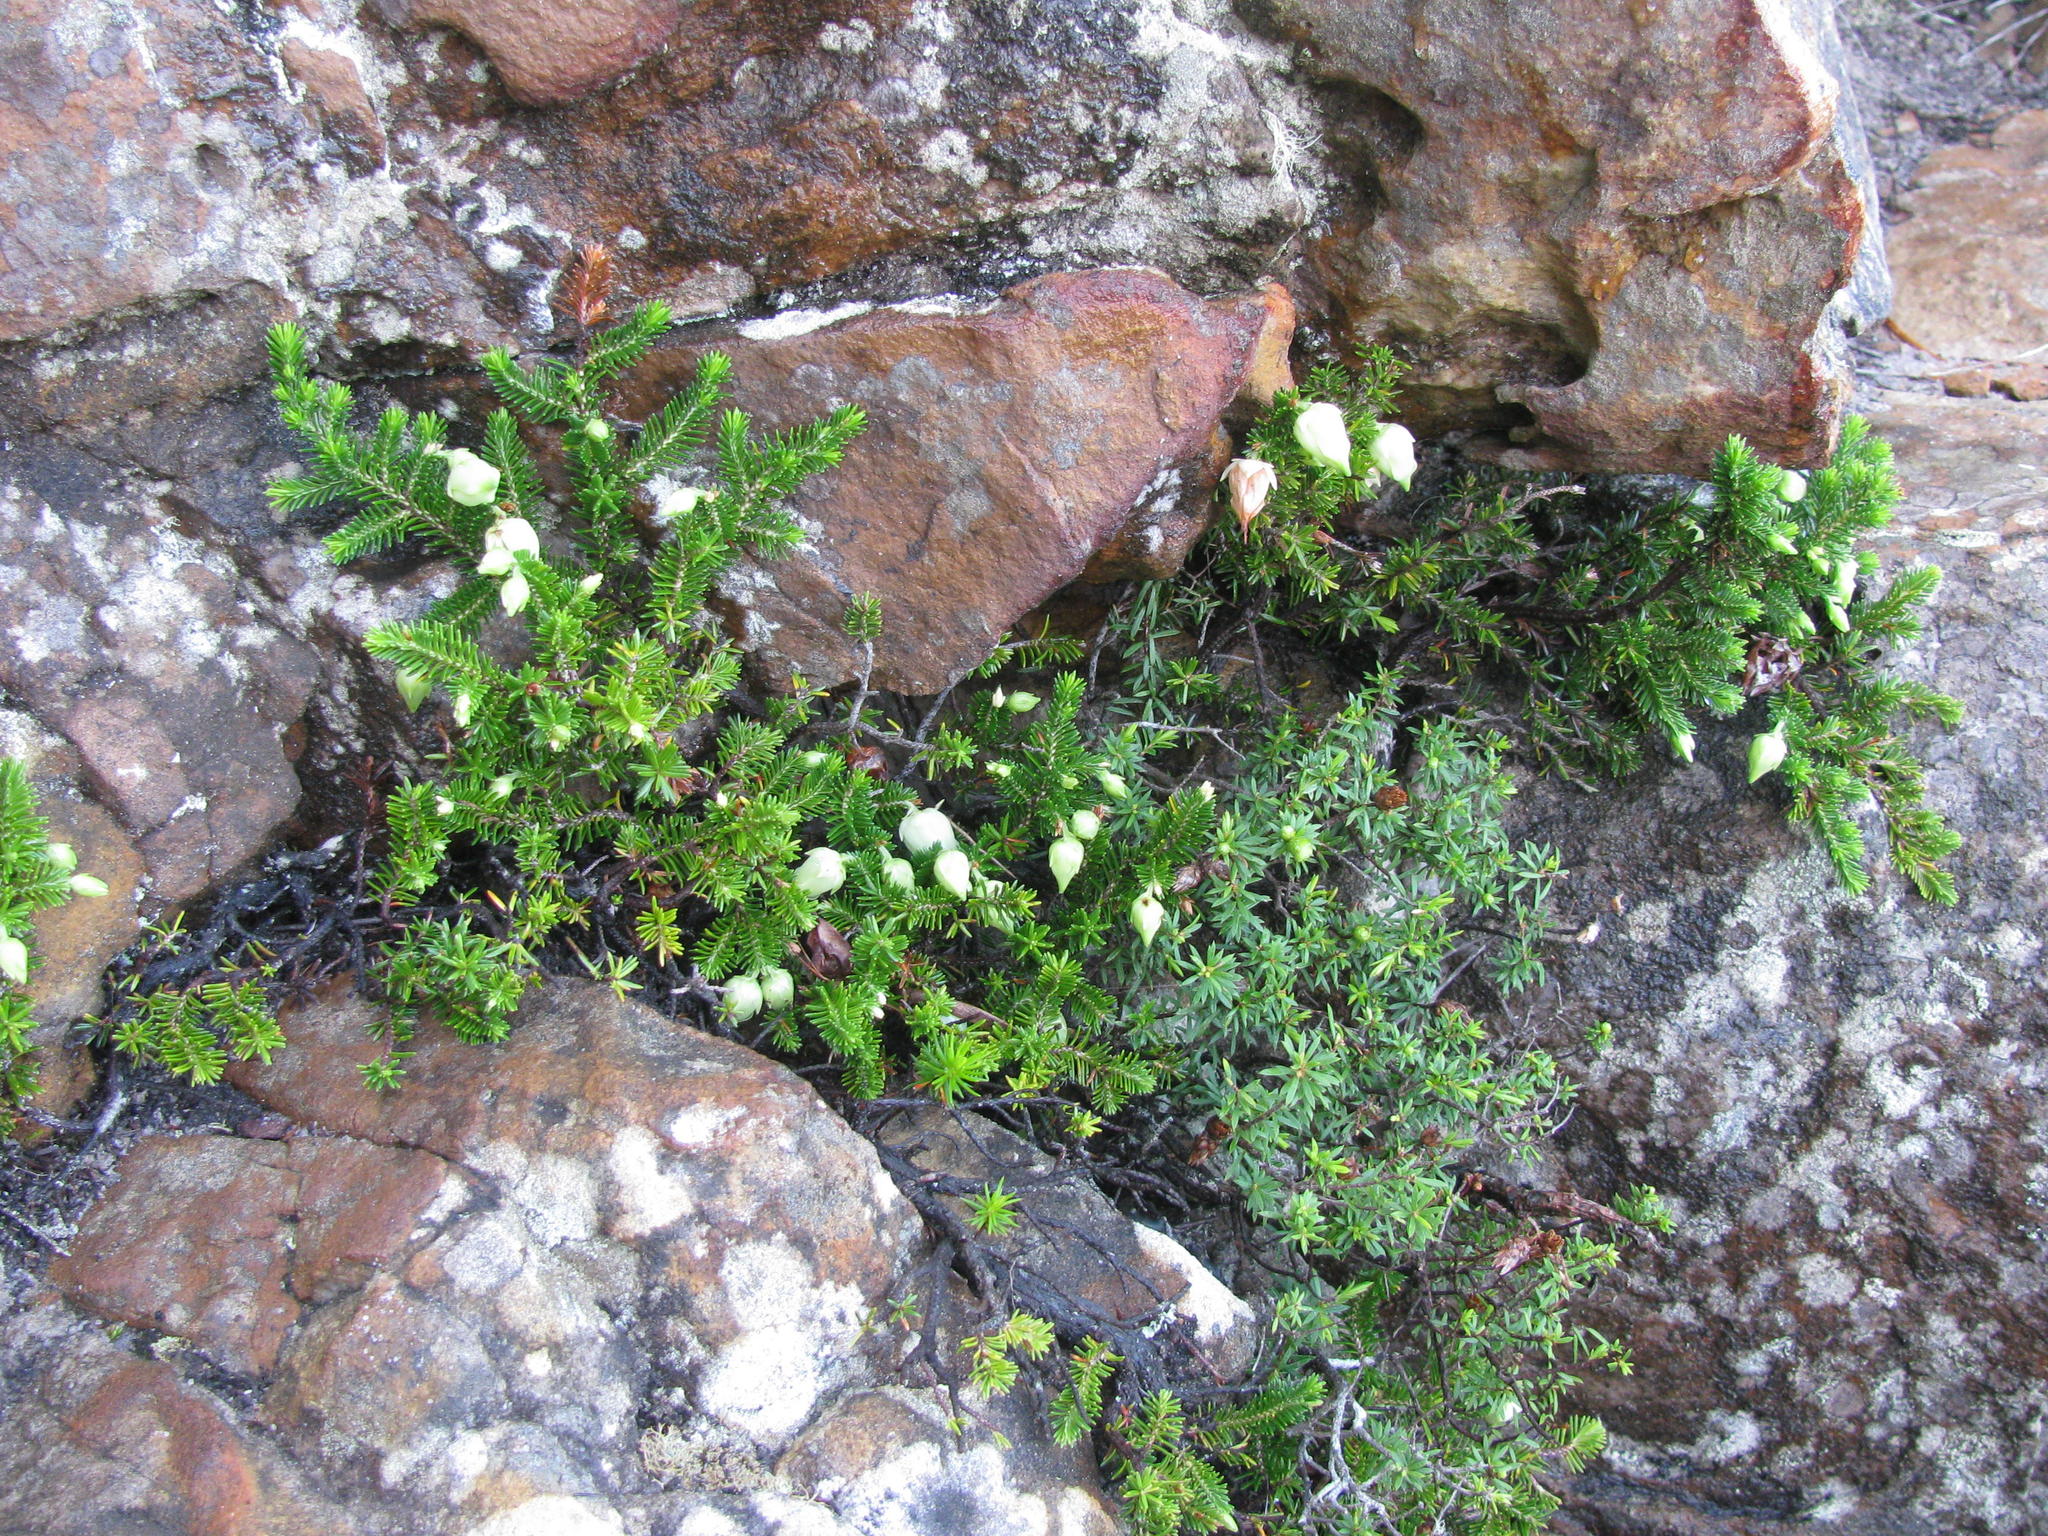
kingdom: Plantae
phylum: Tracheophyta
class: Magnoliopsida
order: Ericales
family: Ericaceae
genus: Erica
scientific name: Erica halicacaba
